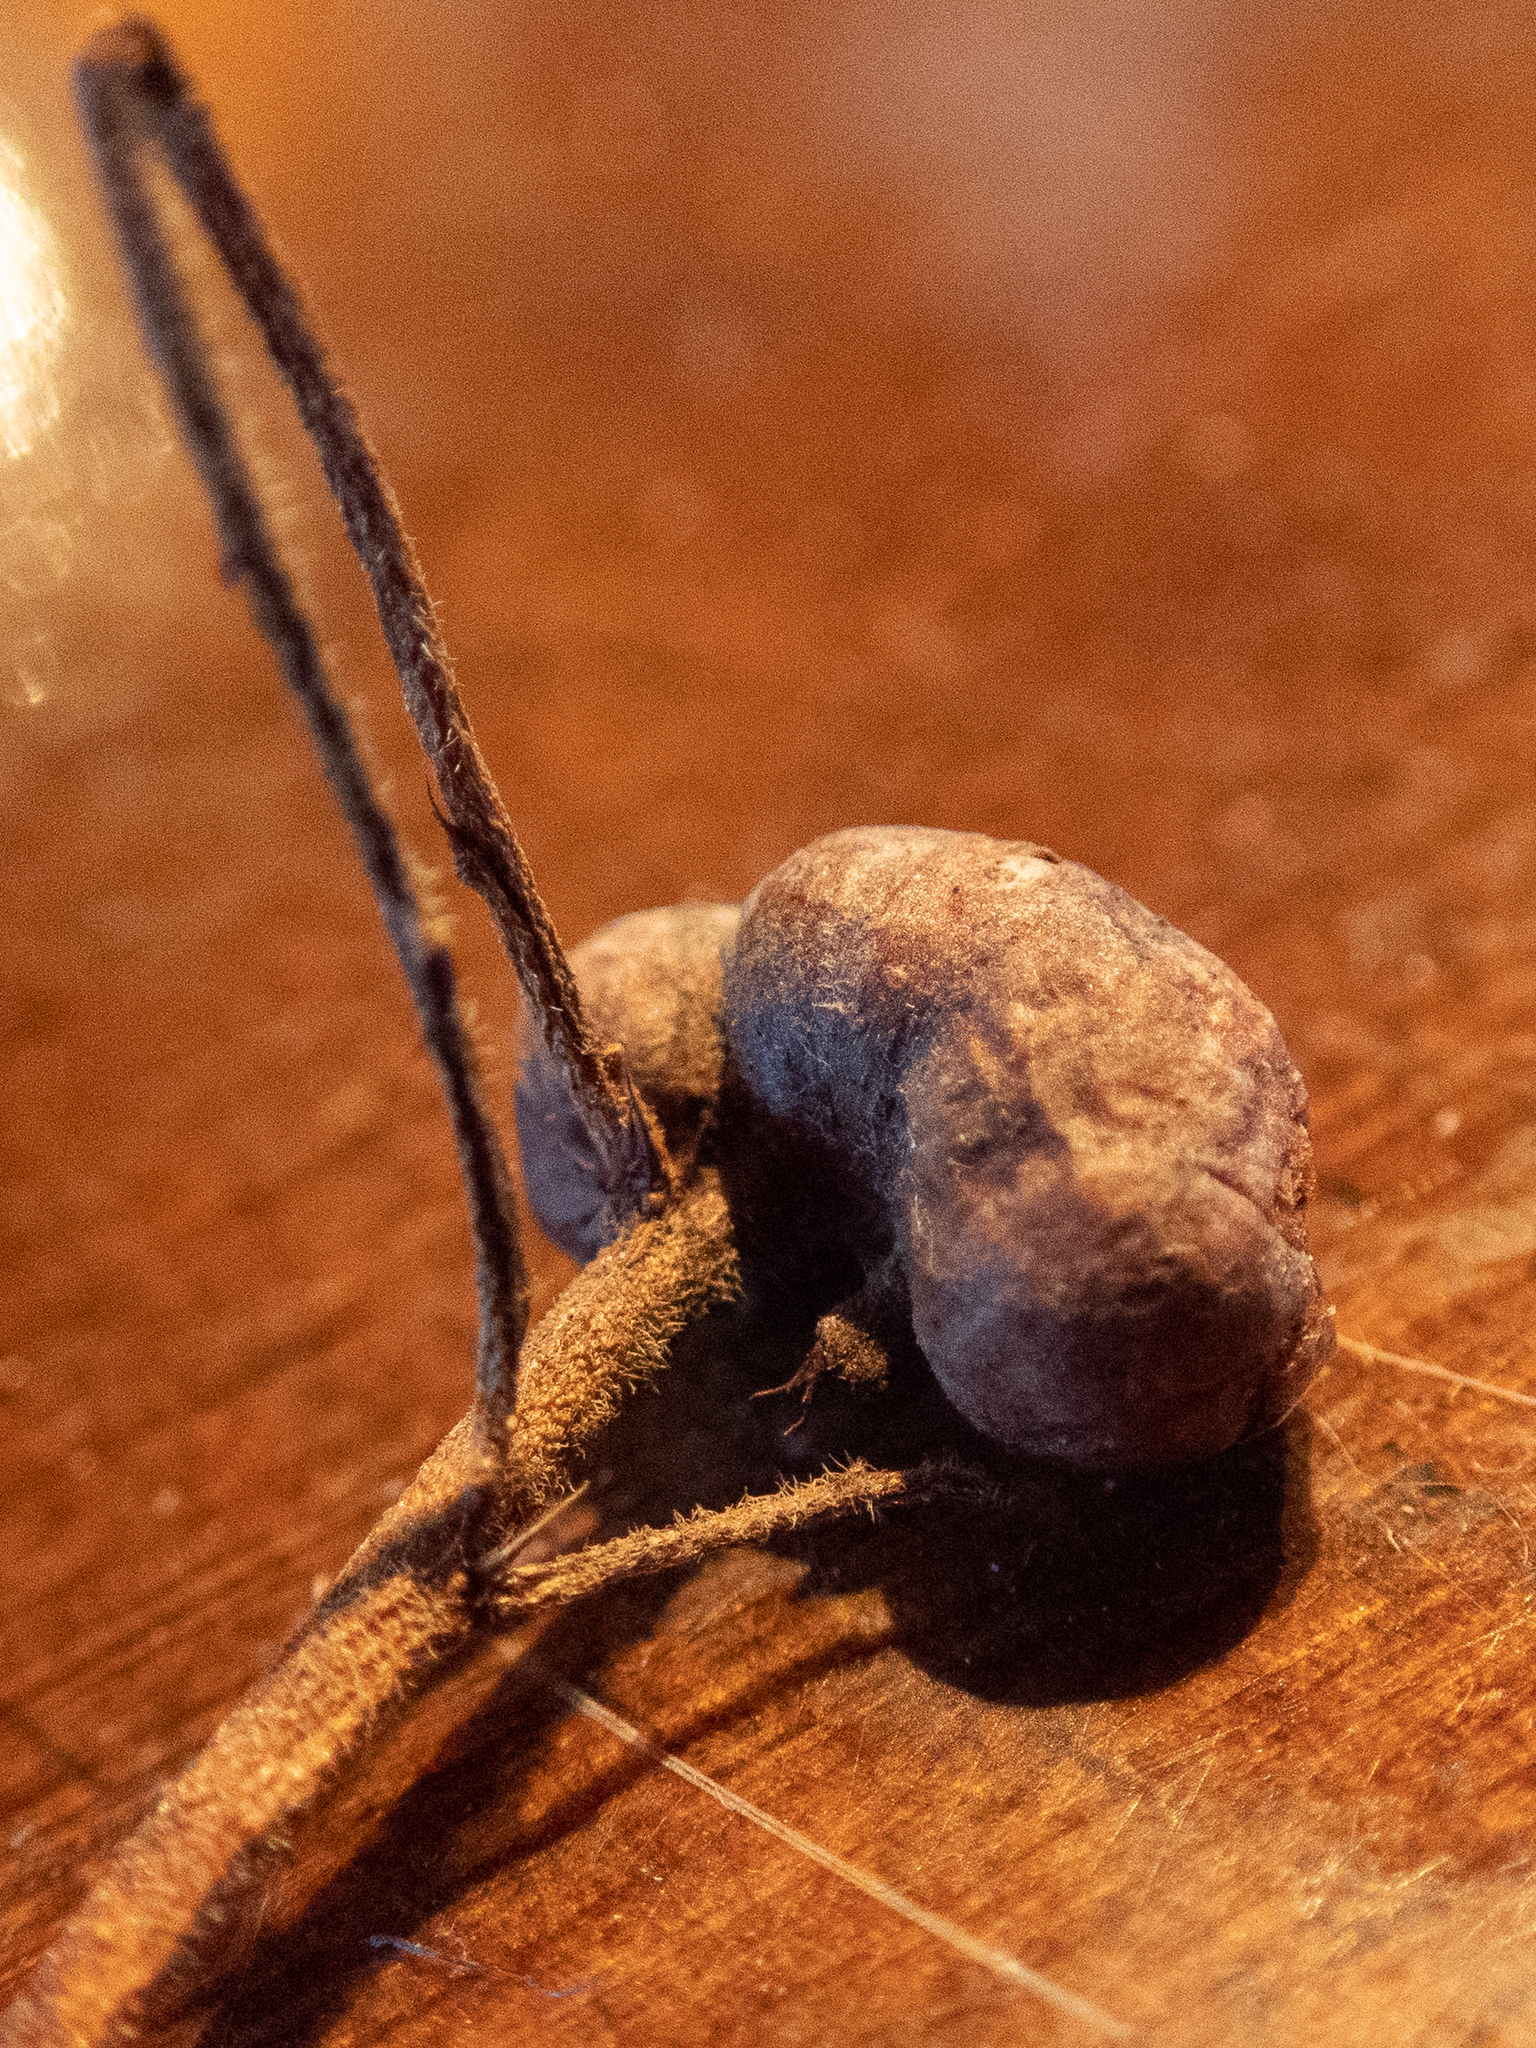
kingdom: Animalia
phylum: Arthropoda
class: Insecta
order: Hymenoptera
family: Pteromalidae
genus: Hemadas
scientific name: Hemadas nubilipennis
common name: Blueberry stem gall wasp
